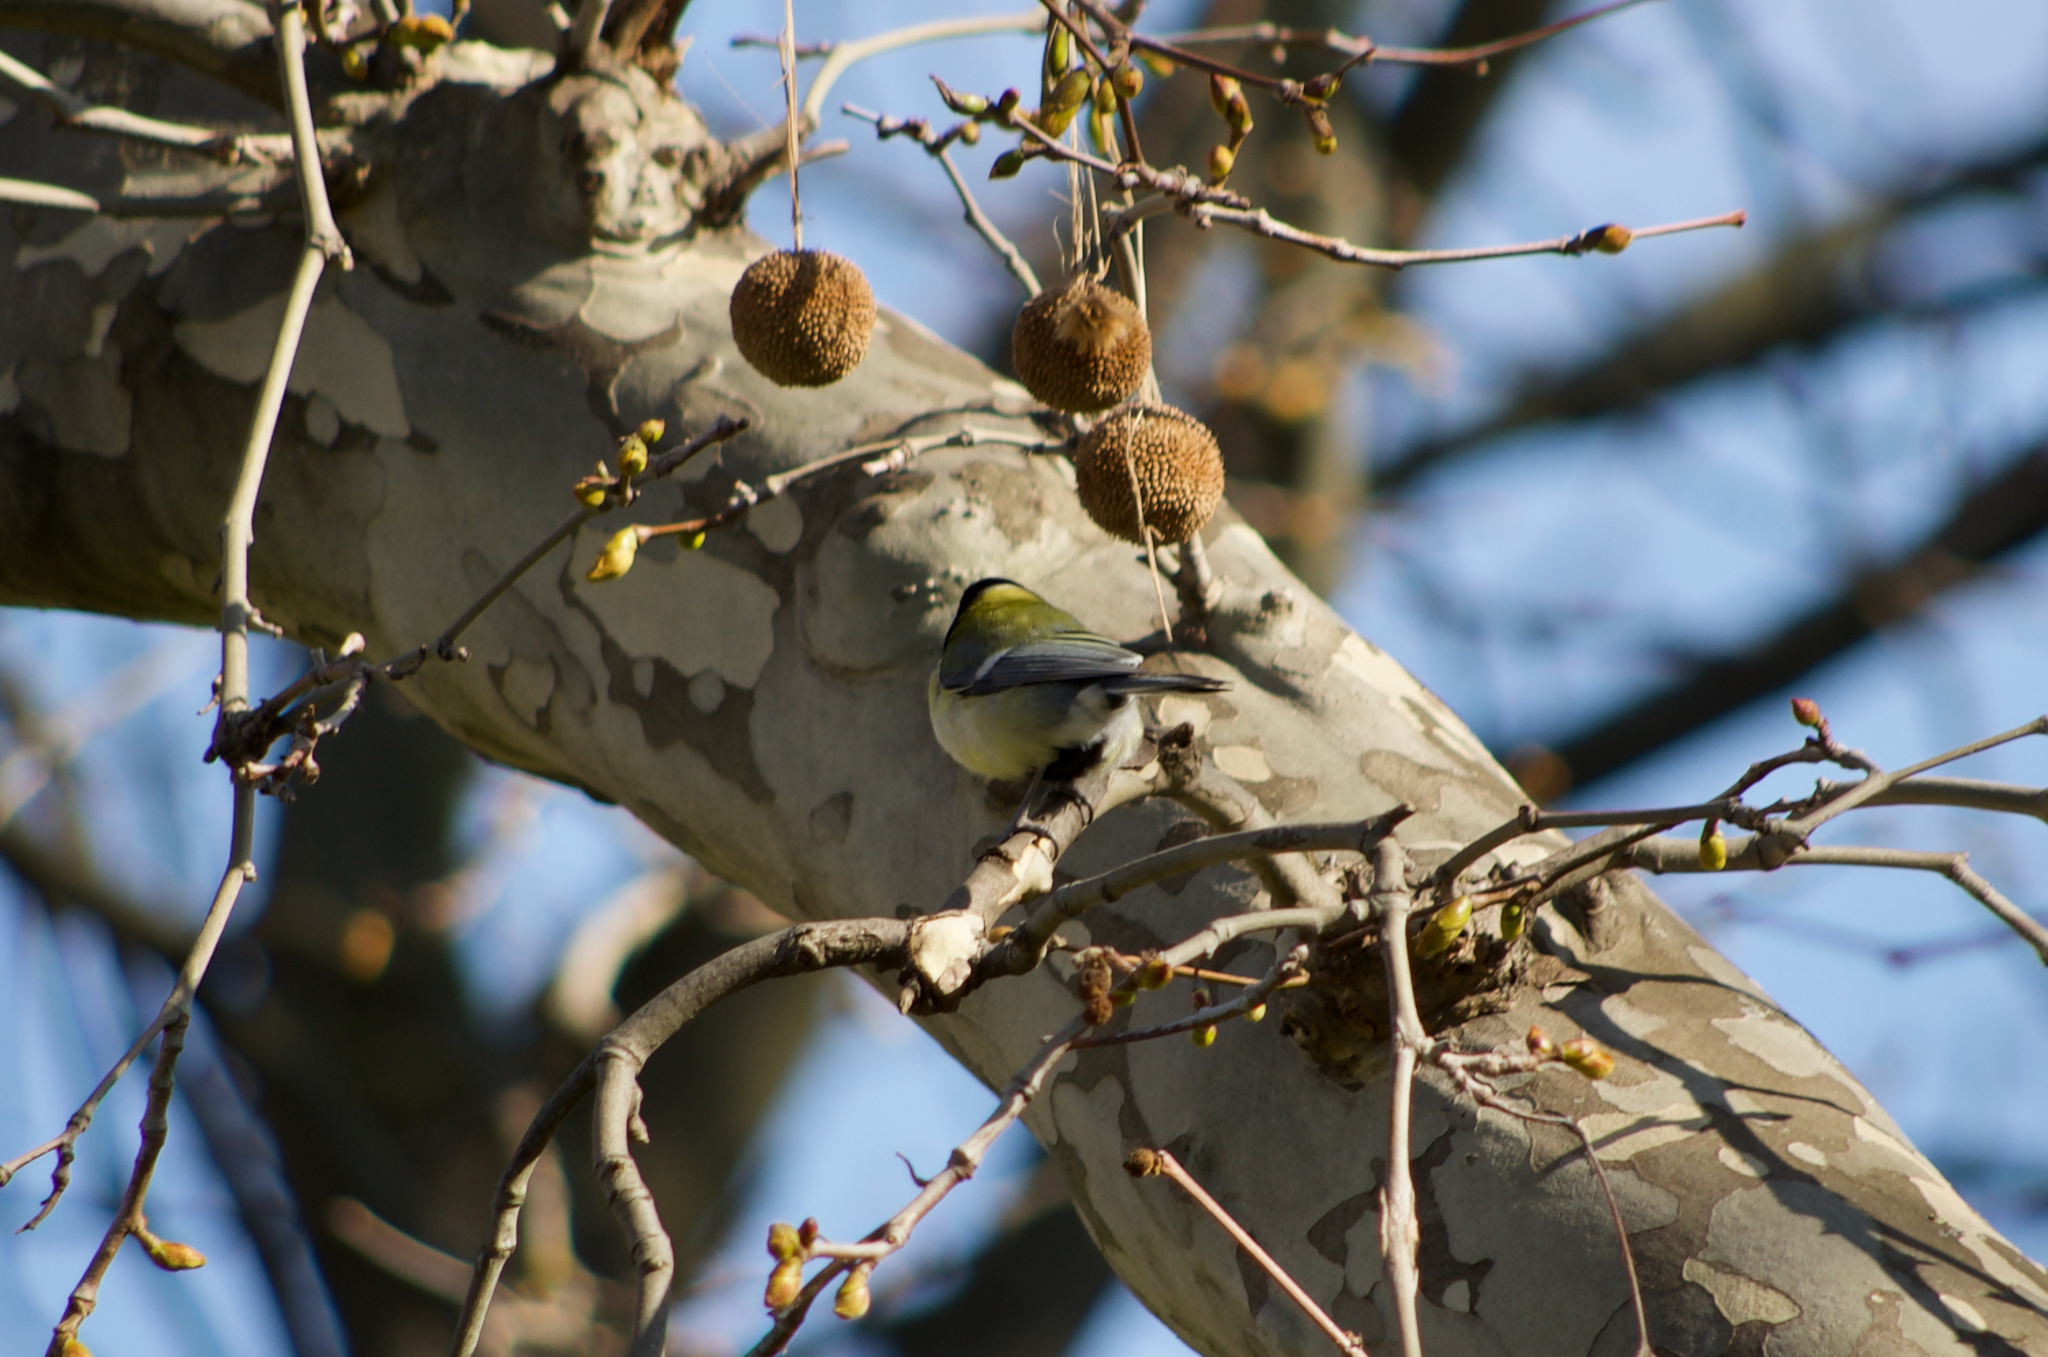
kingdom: Animalia
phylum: Chordata
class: Aves
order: Passeriformes
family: Paridae
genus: Parus
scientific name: Parus major
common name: Great tit
